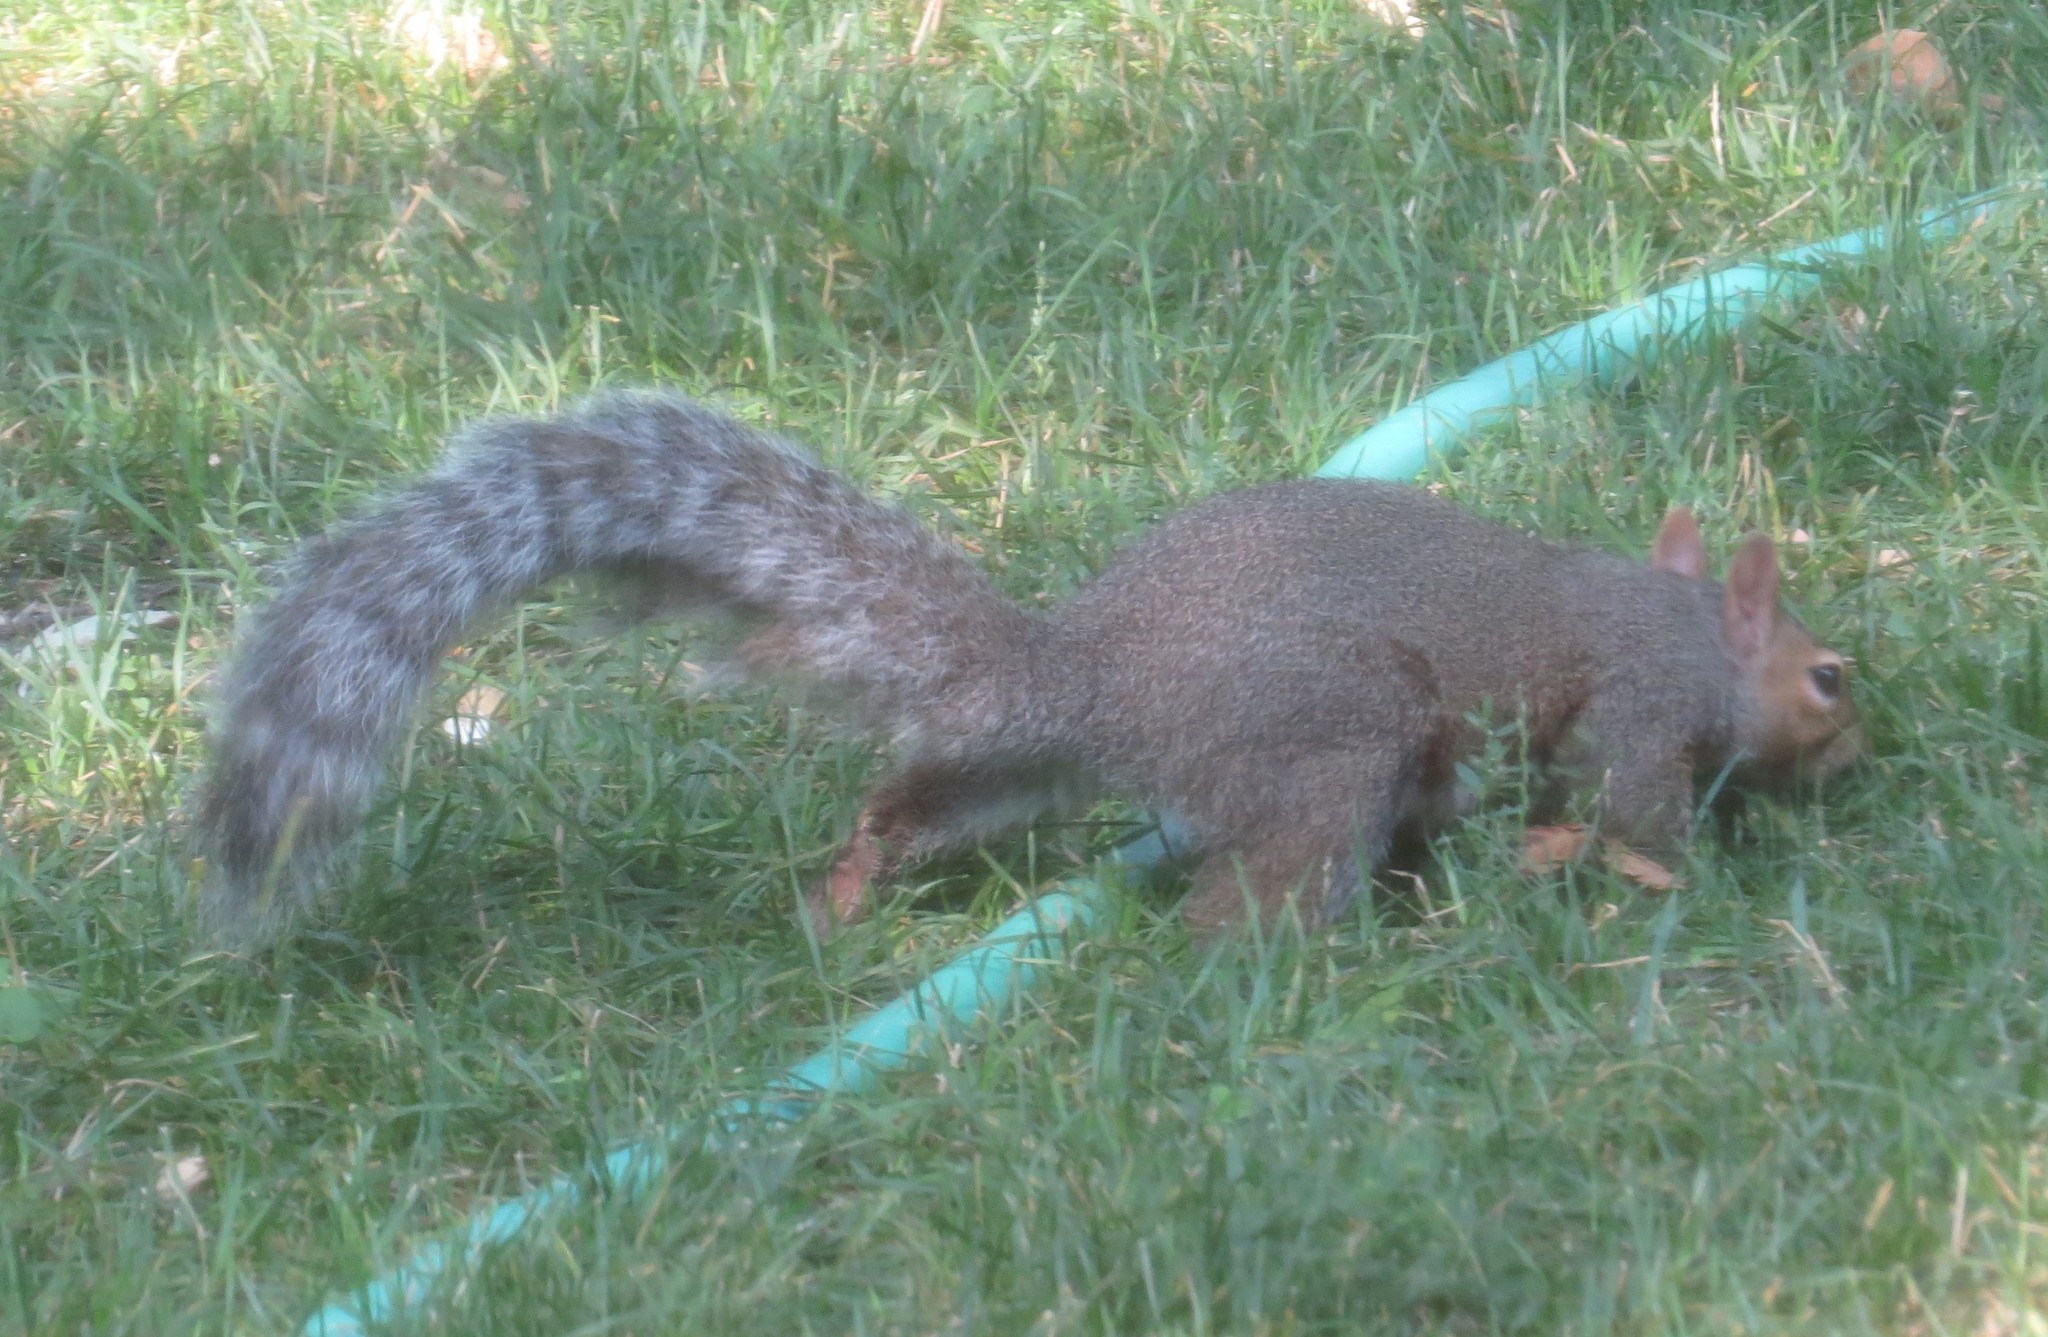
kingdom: Animalia
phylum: Chordata
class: Mammalia
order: Rodentia
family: Sciuridae
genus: Sciurus
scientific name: Sciurus carolinensis
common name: Eastern gray squirrel
